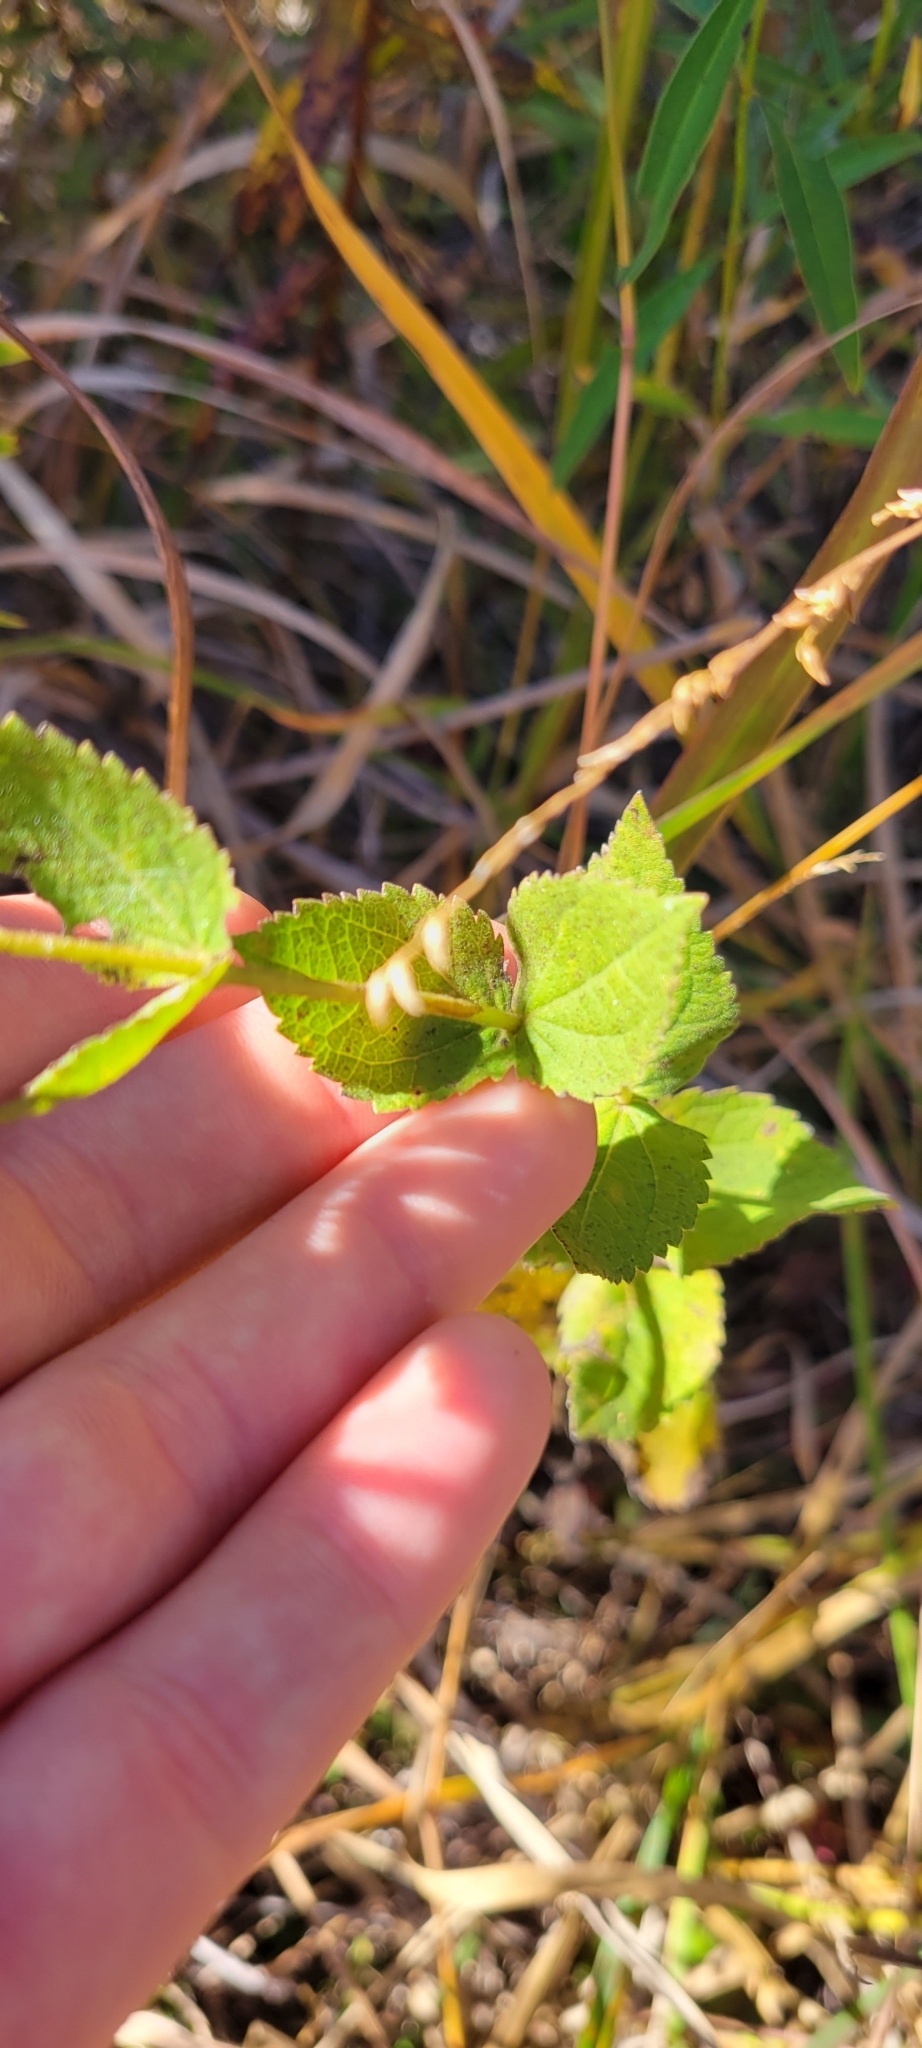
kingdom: Plantae
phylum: Tracheophyta
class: Magnoliopsida
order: Asterales
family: Asteraceae
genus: Eupatorium
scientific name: Eupatorium rotundifolium
